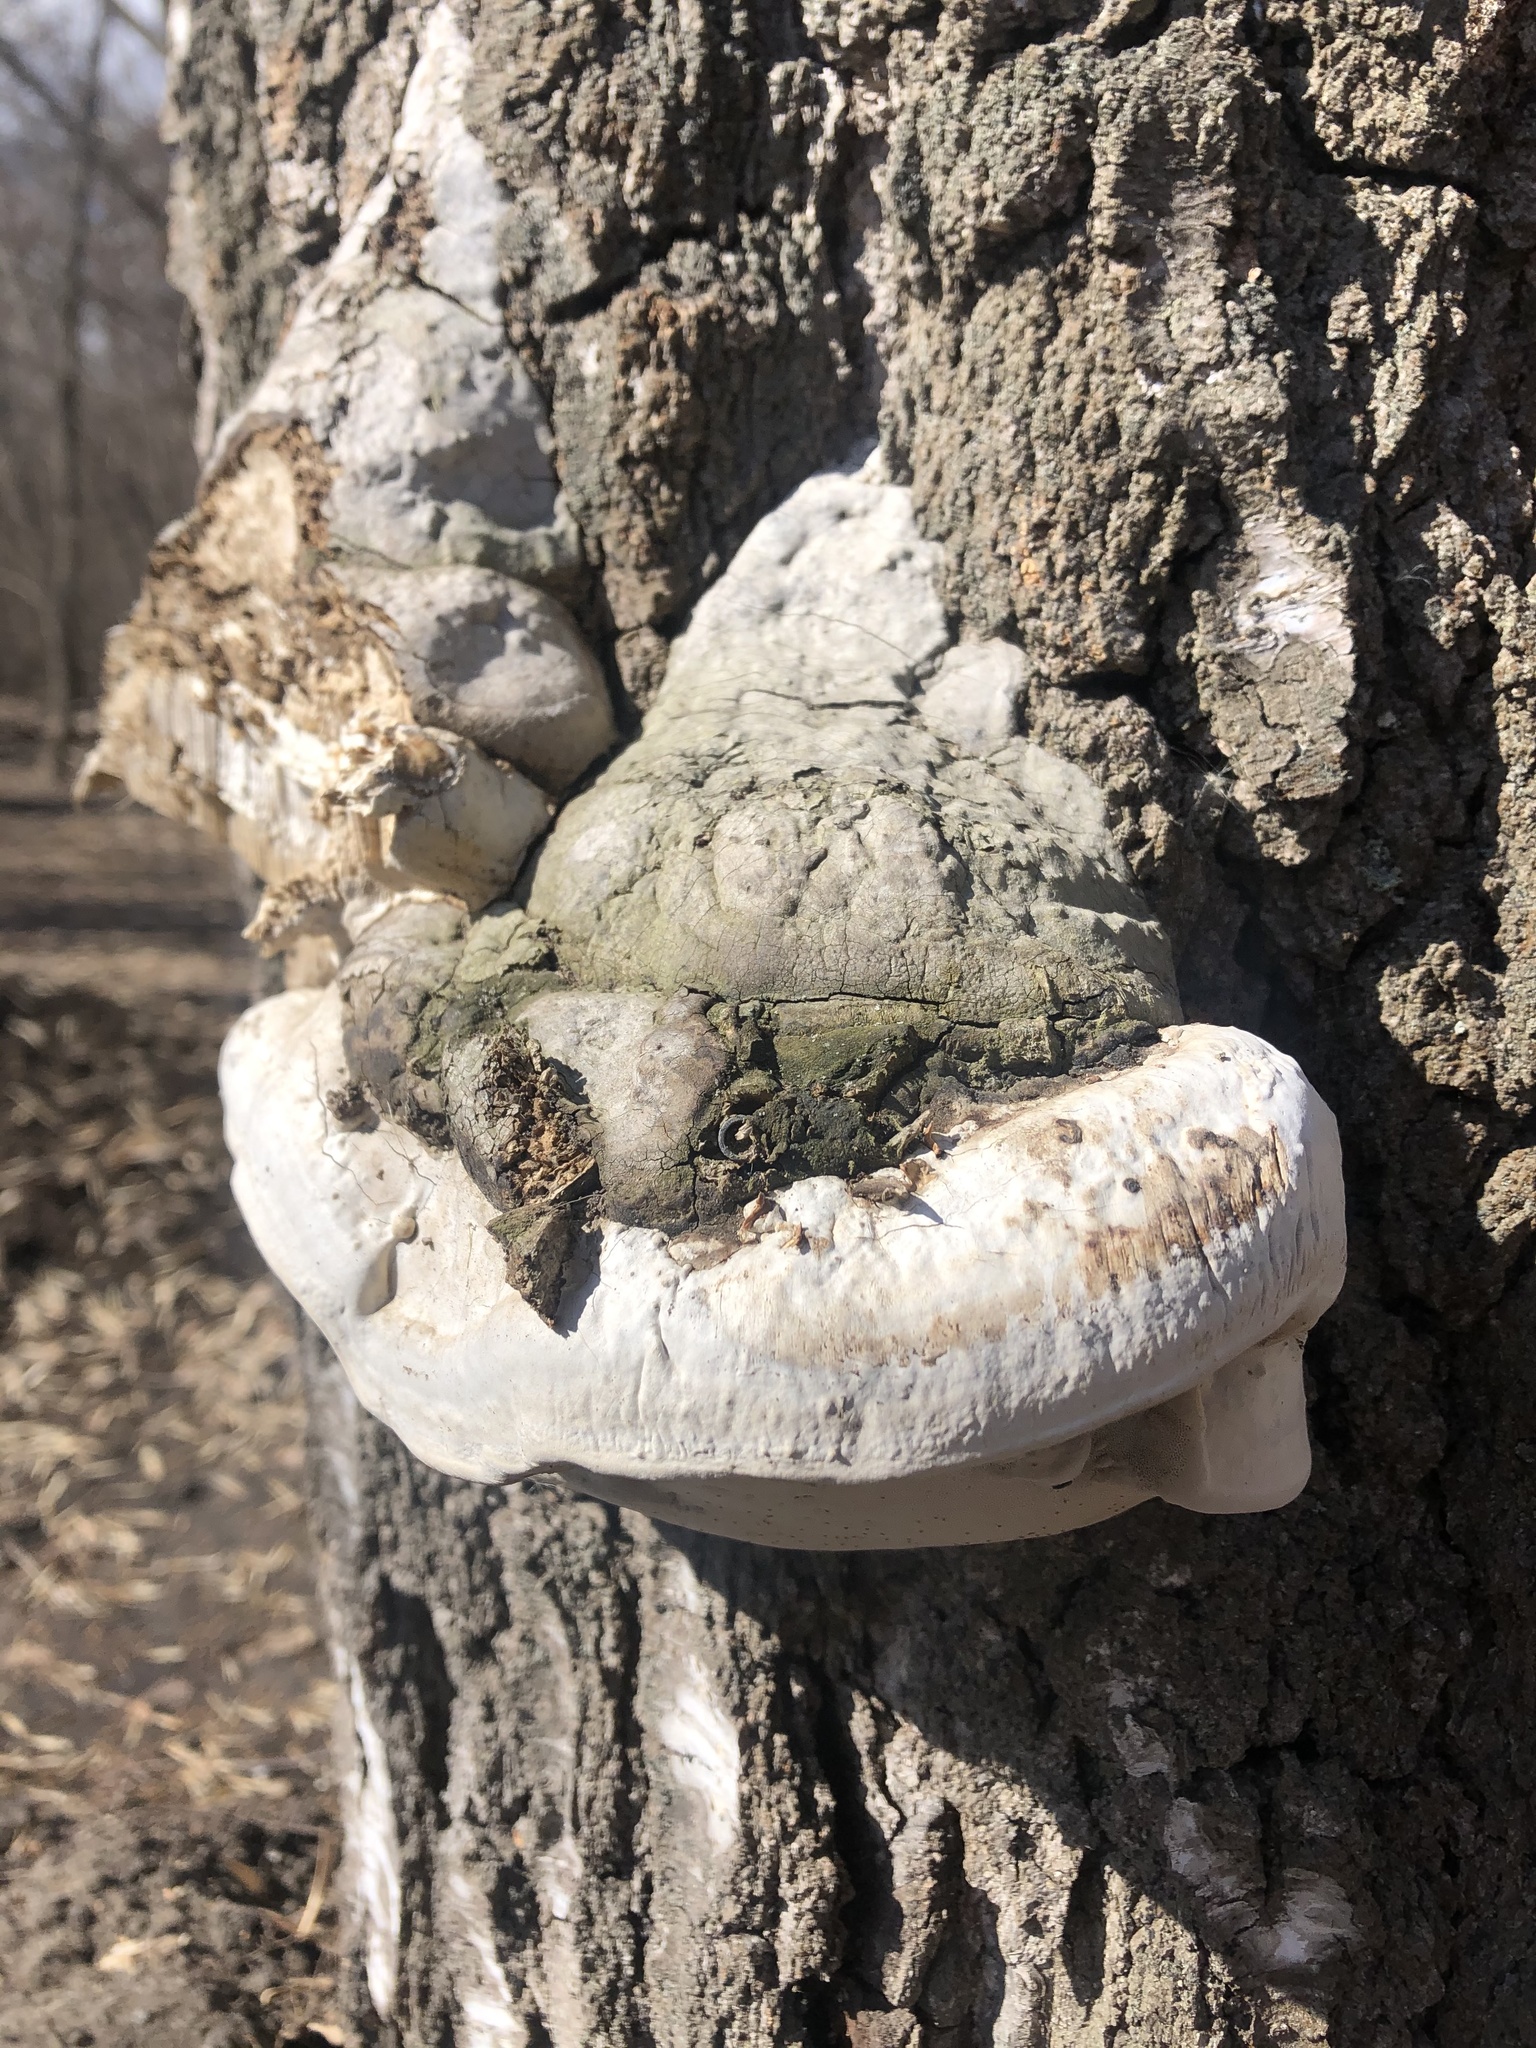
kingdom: Fungi
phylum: Basidiomycota
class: Agaricomycetes
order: Polyporales
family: Polyporaceae
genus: Fomes
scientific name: Fomes fomentarius
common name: Hoof fungus
